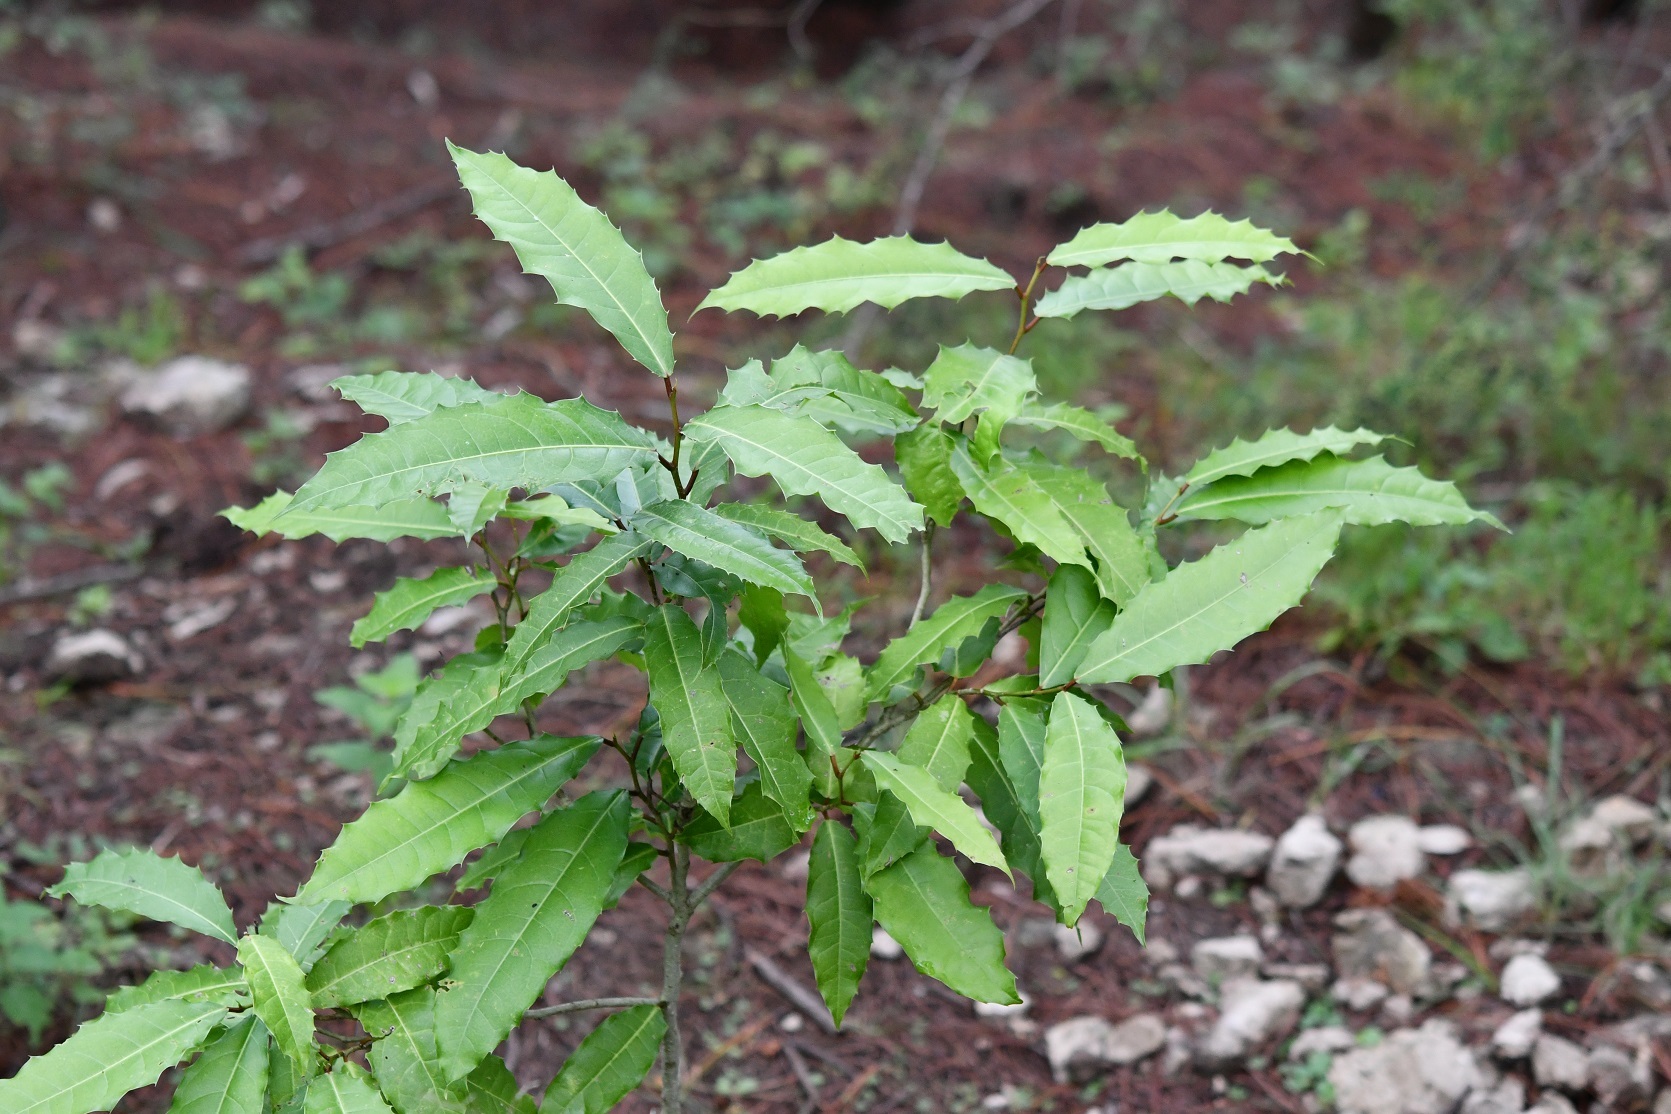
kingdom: Plantae
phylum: Tracheophyta
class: Magnoliopsida
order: Malpighiales
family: Salicaceae
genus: Olmediella
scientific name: Olmediella betschleriana
